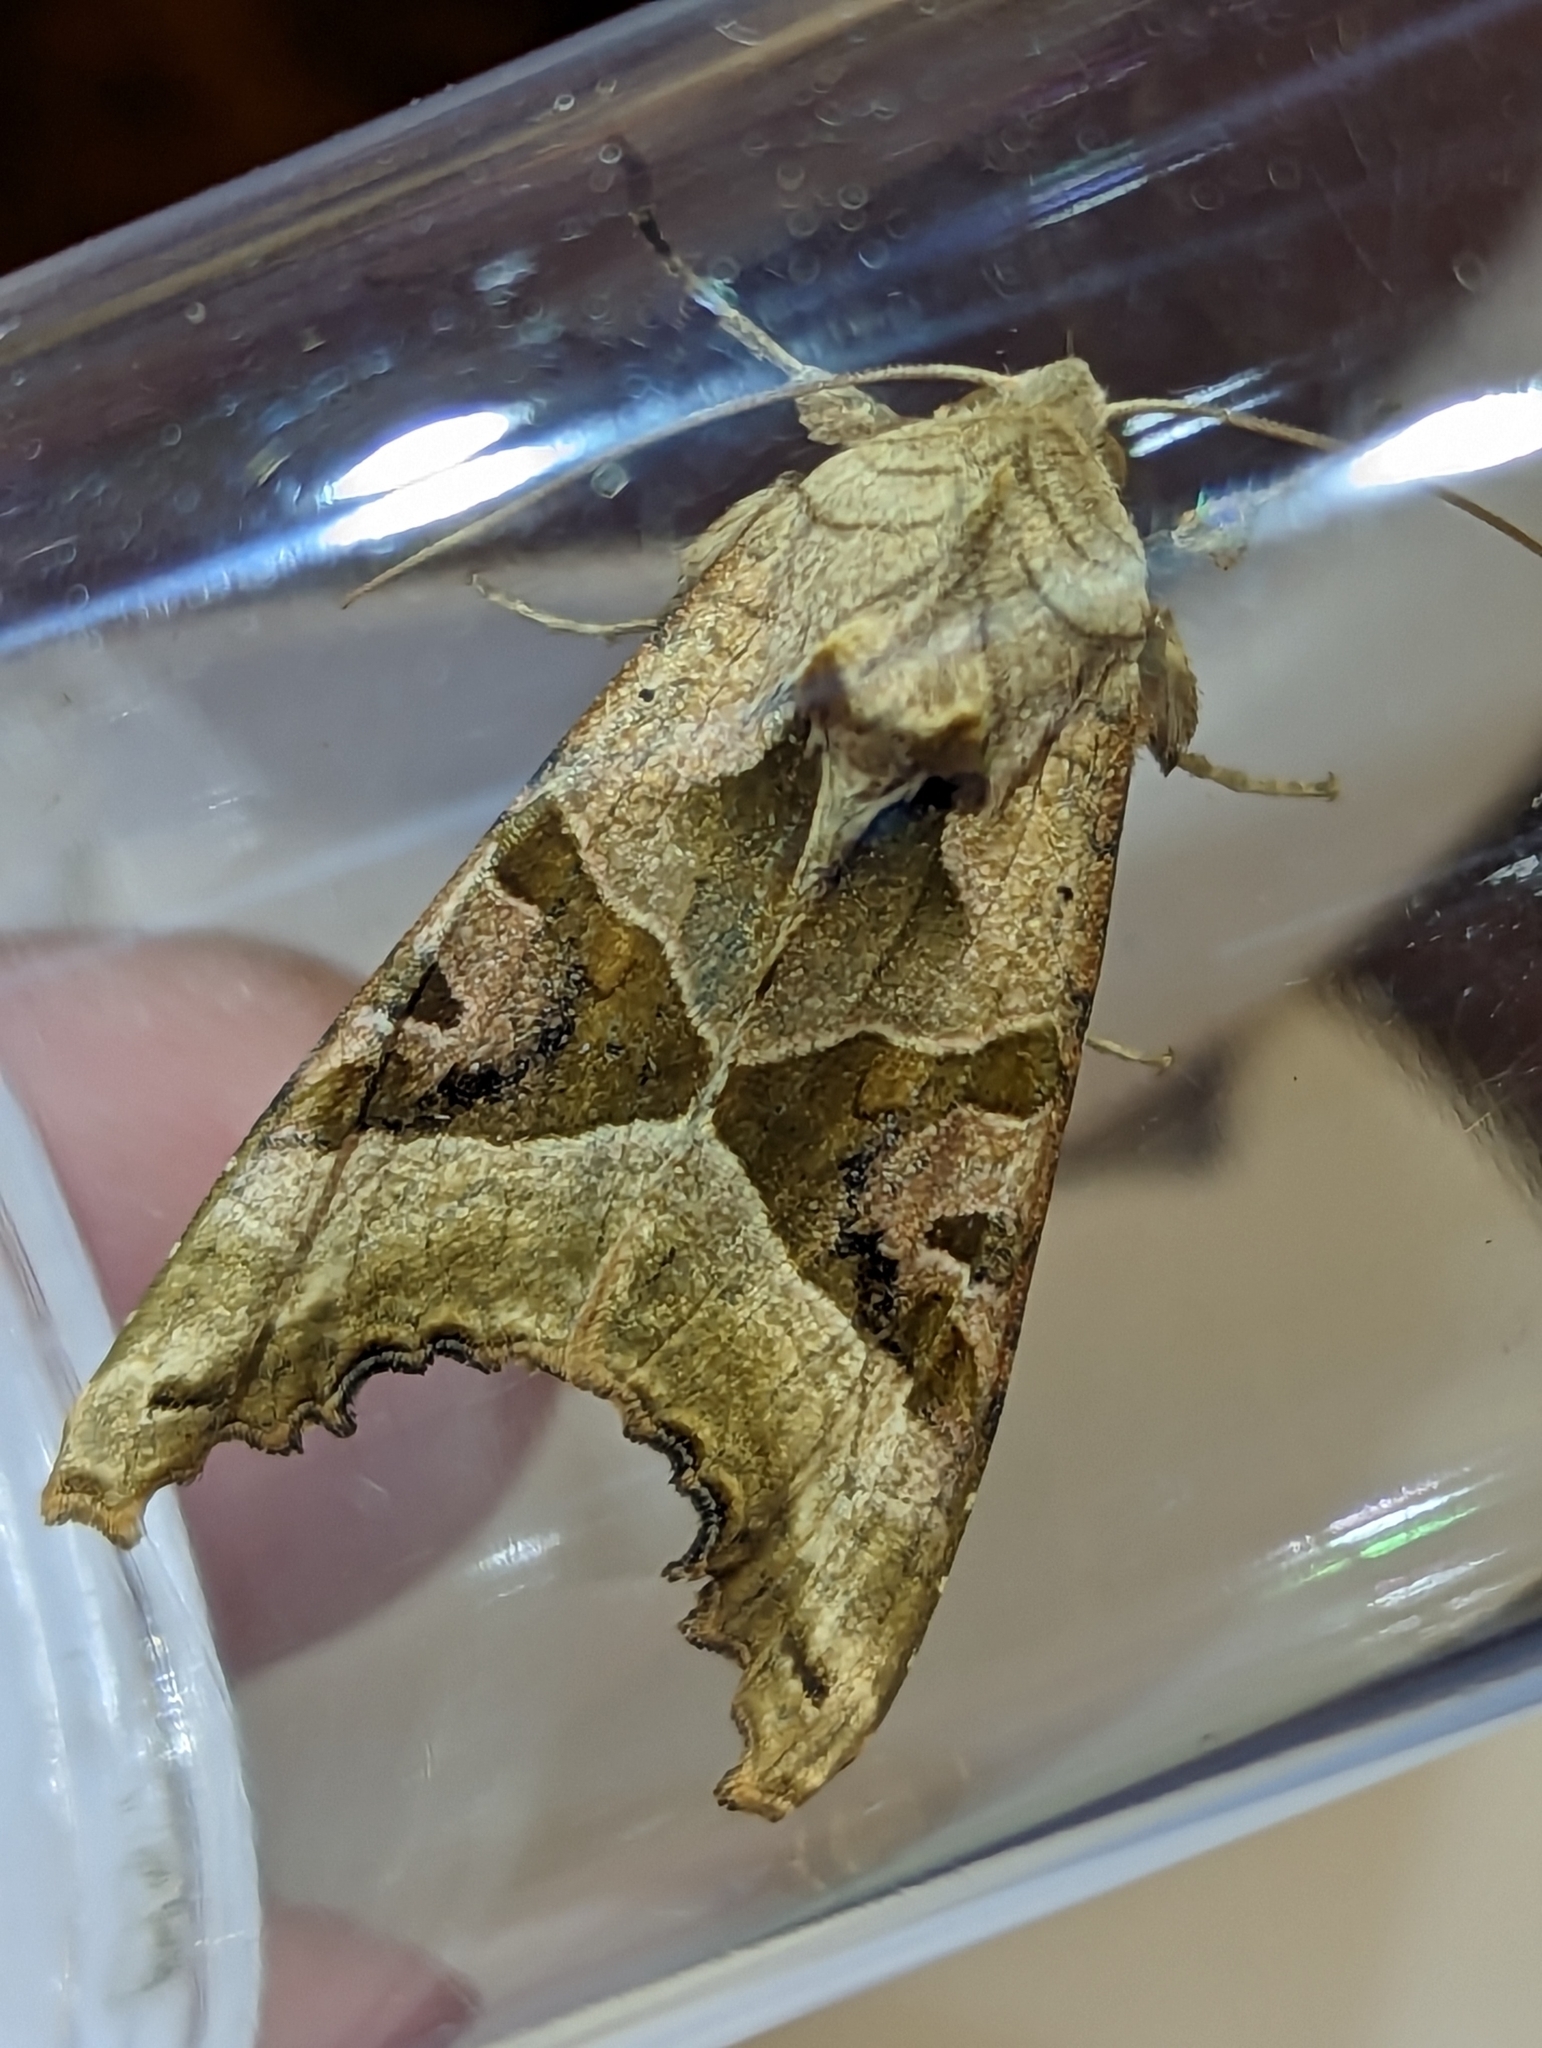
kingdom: Animalia
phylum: Arthropoda
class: Insecta
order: Lepidoptera
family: Noctuidae
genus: Phlogophora
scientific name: Phlogophora meticulosa
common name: Angle shades
